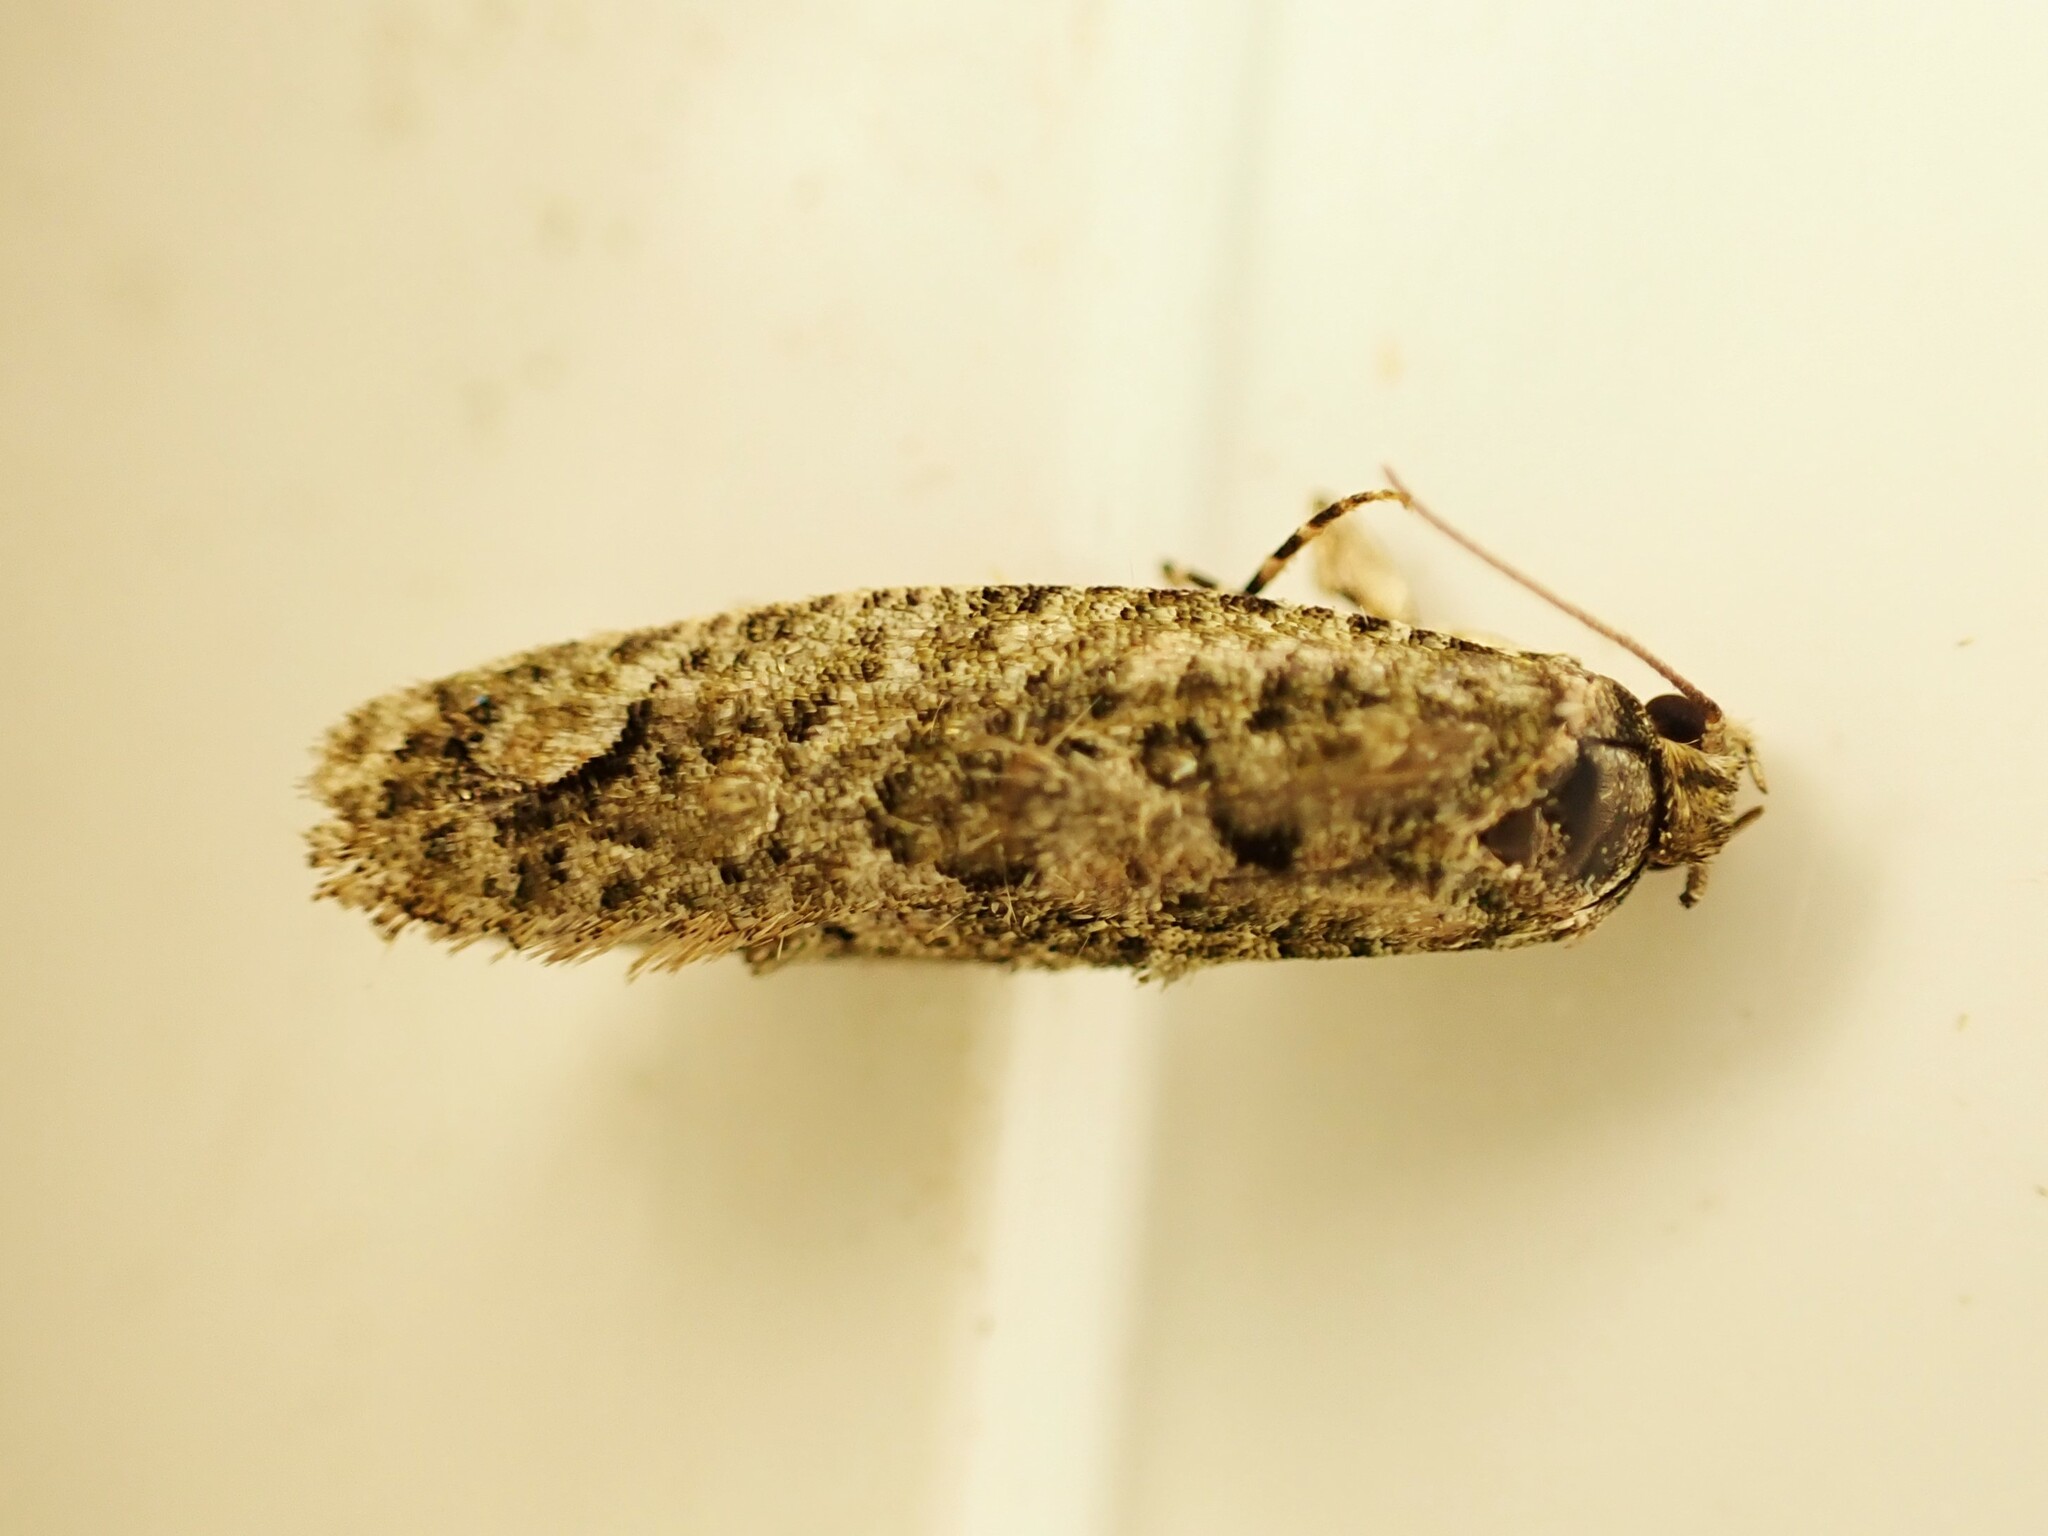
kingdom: Animalia
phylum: Arthropoda
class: Insecta
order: Lepidoptera
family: Tineidae
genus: Lysiphragma
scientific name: Lysiphragma howesii
